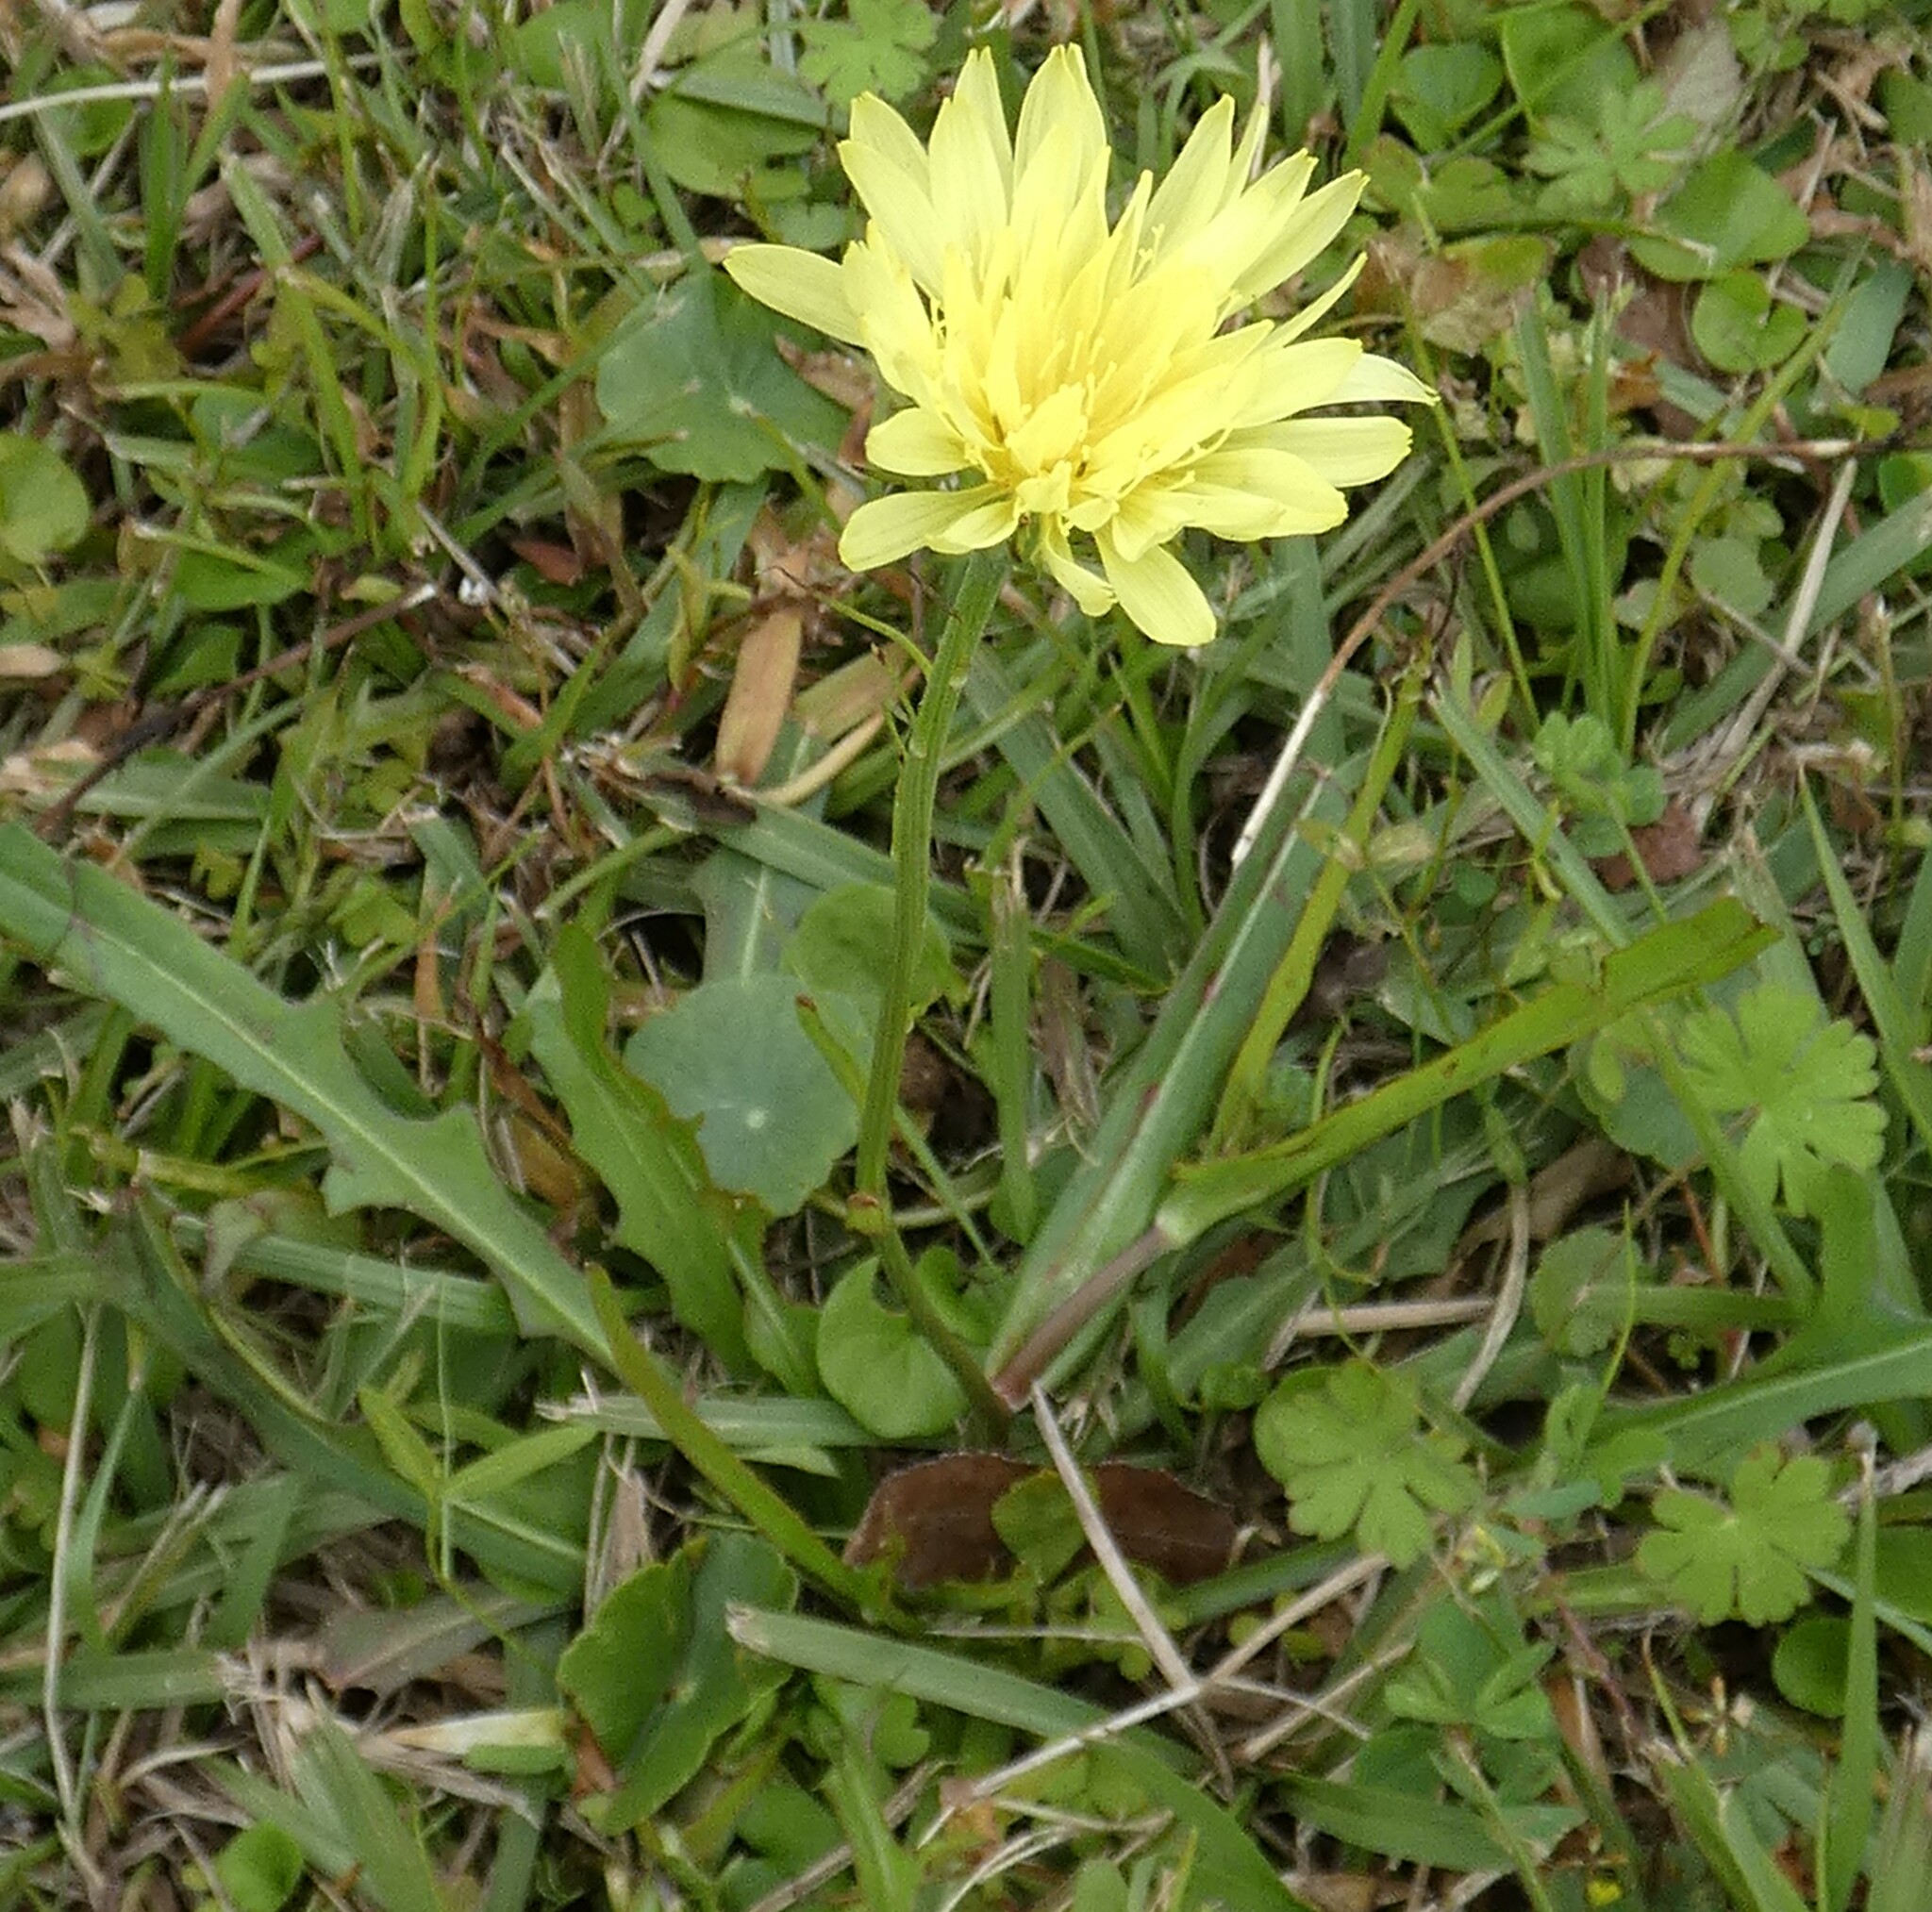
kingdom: Plantae
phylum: Tracheophyta
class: Magnoliopsida
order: Asterales
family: Asteraceae
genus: Pyrrhopappus
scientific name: Pyrrhopappus carolinianus
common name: Carolina desert-chicory
